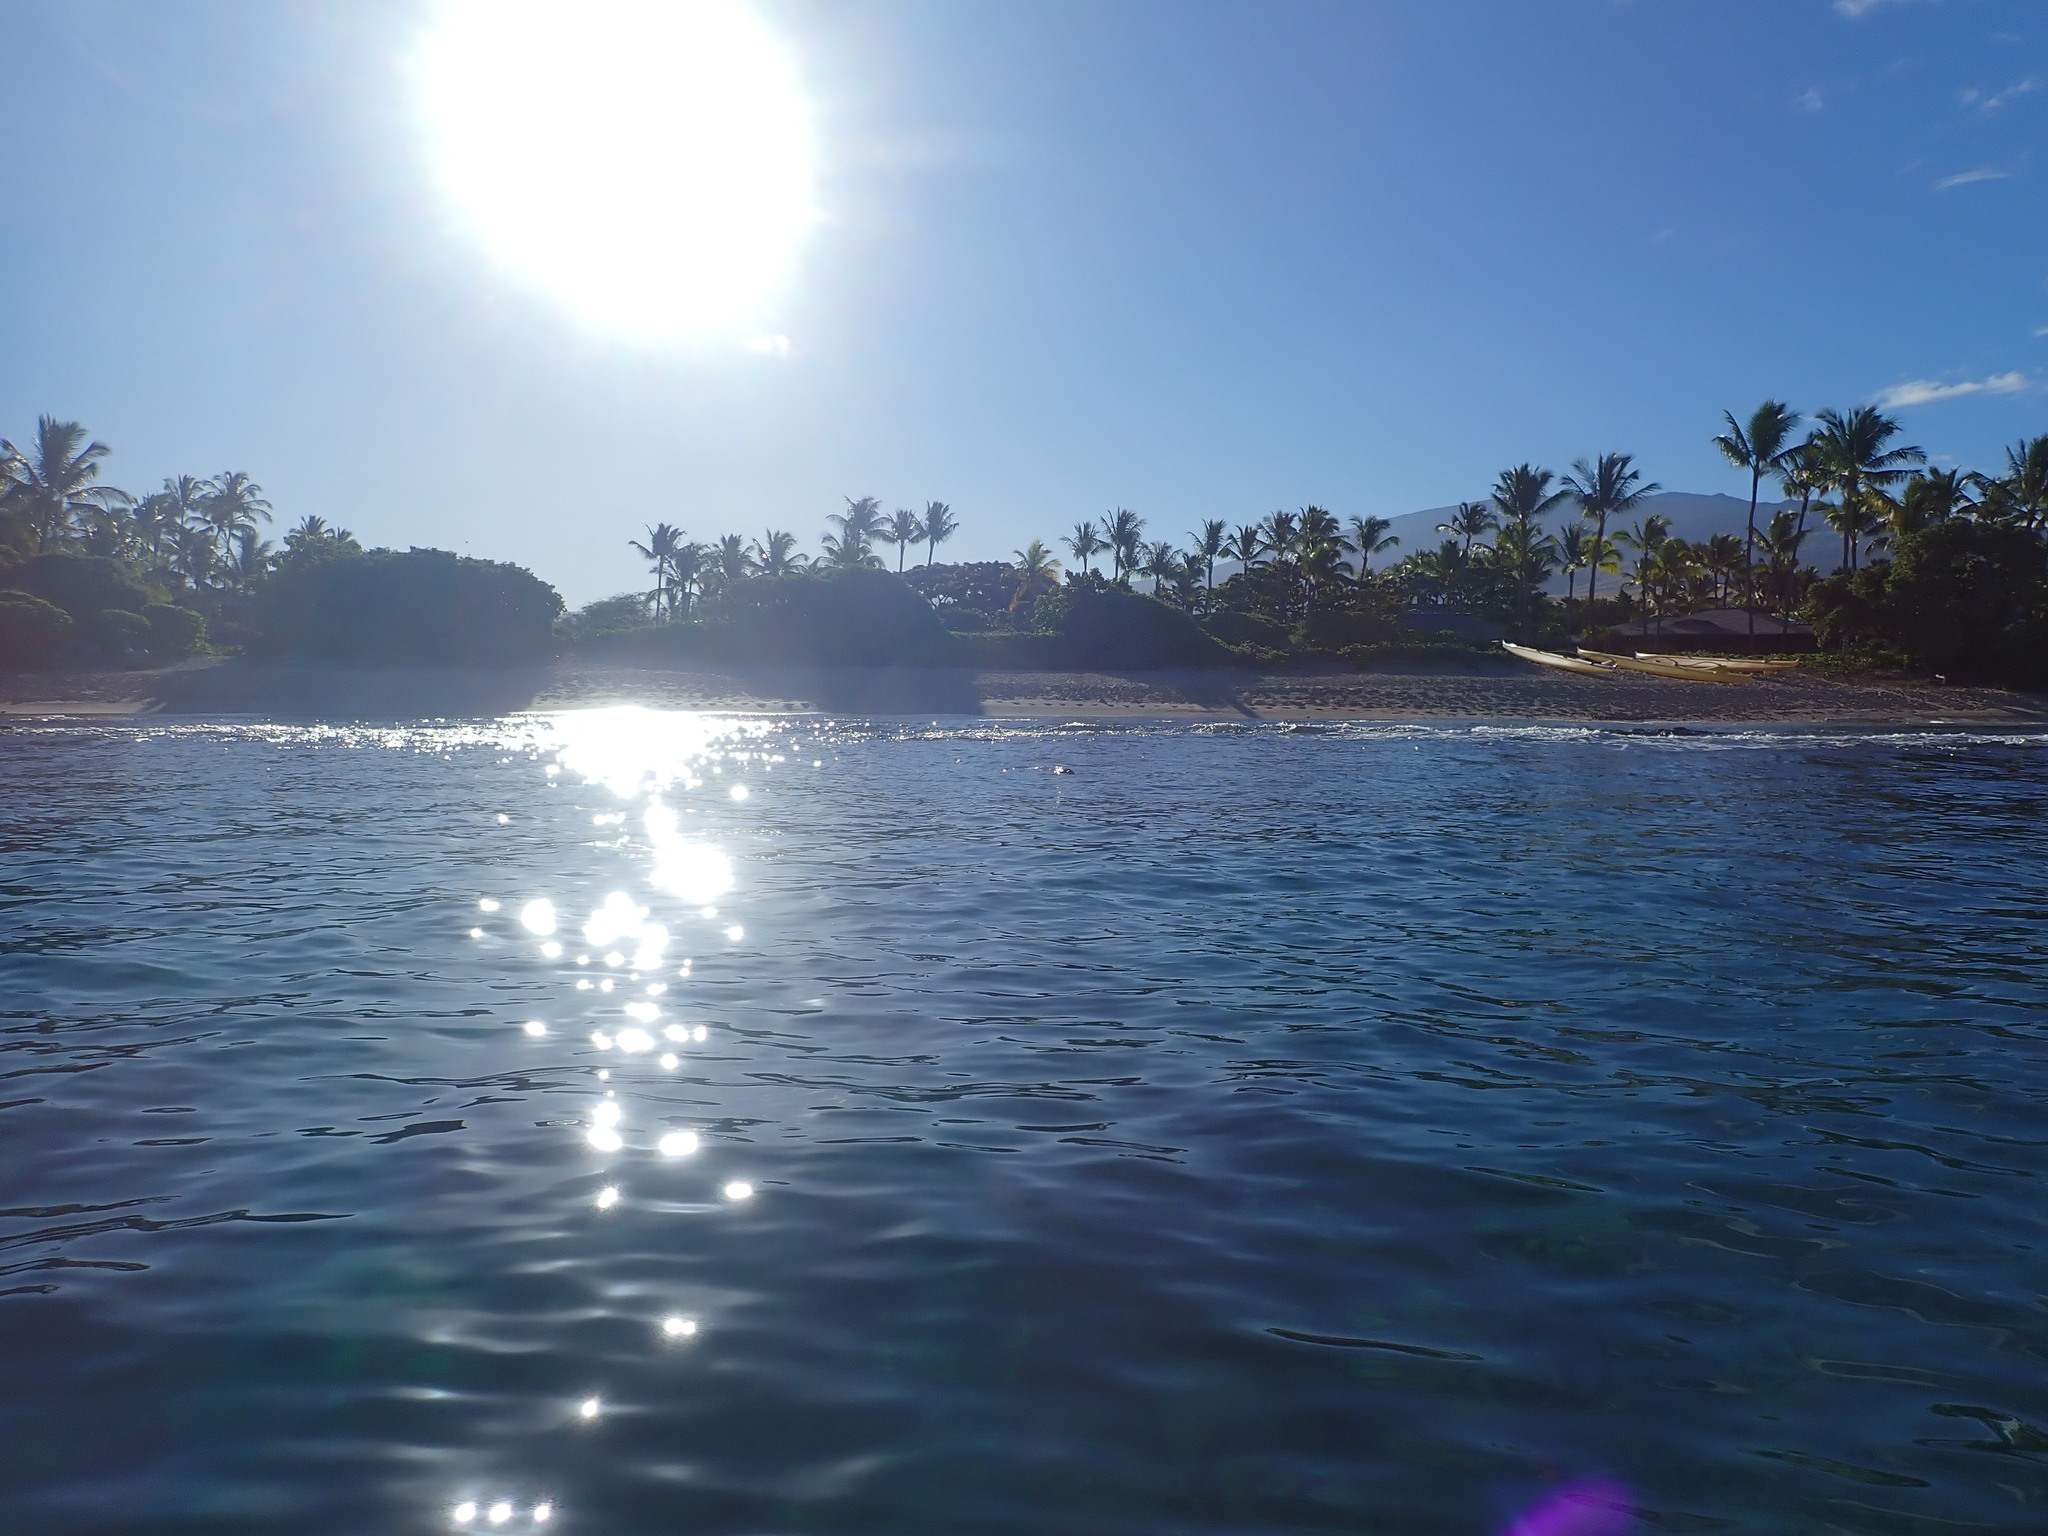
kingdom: Animalia
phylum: Chordata
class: Mammalia
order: Carnivora
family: Phocidae
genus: Neomonachus
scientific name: Neomonachus schauinslandi
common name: Hawaiian monk seal
